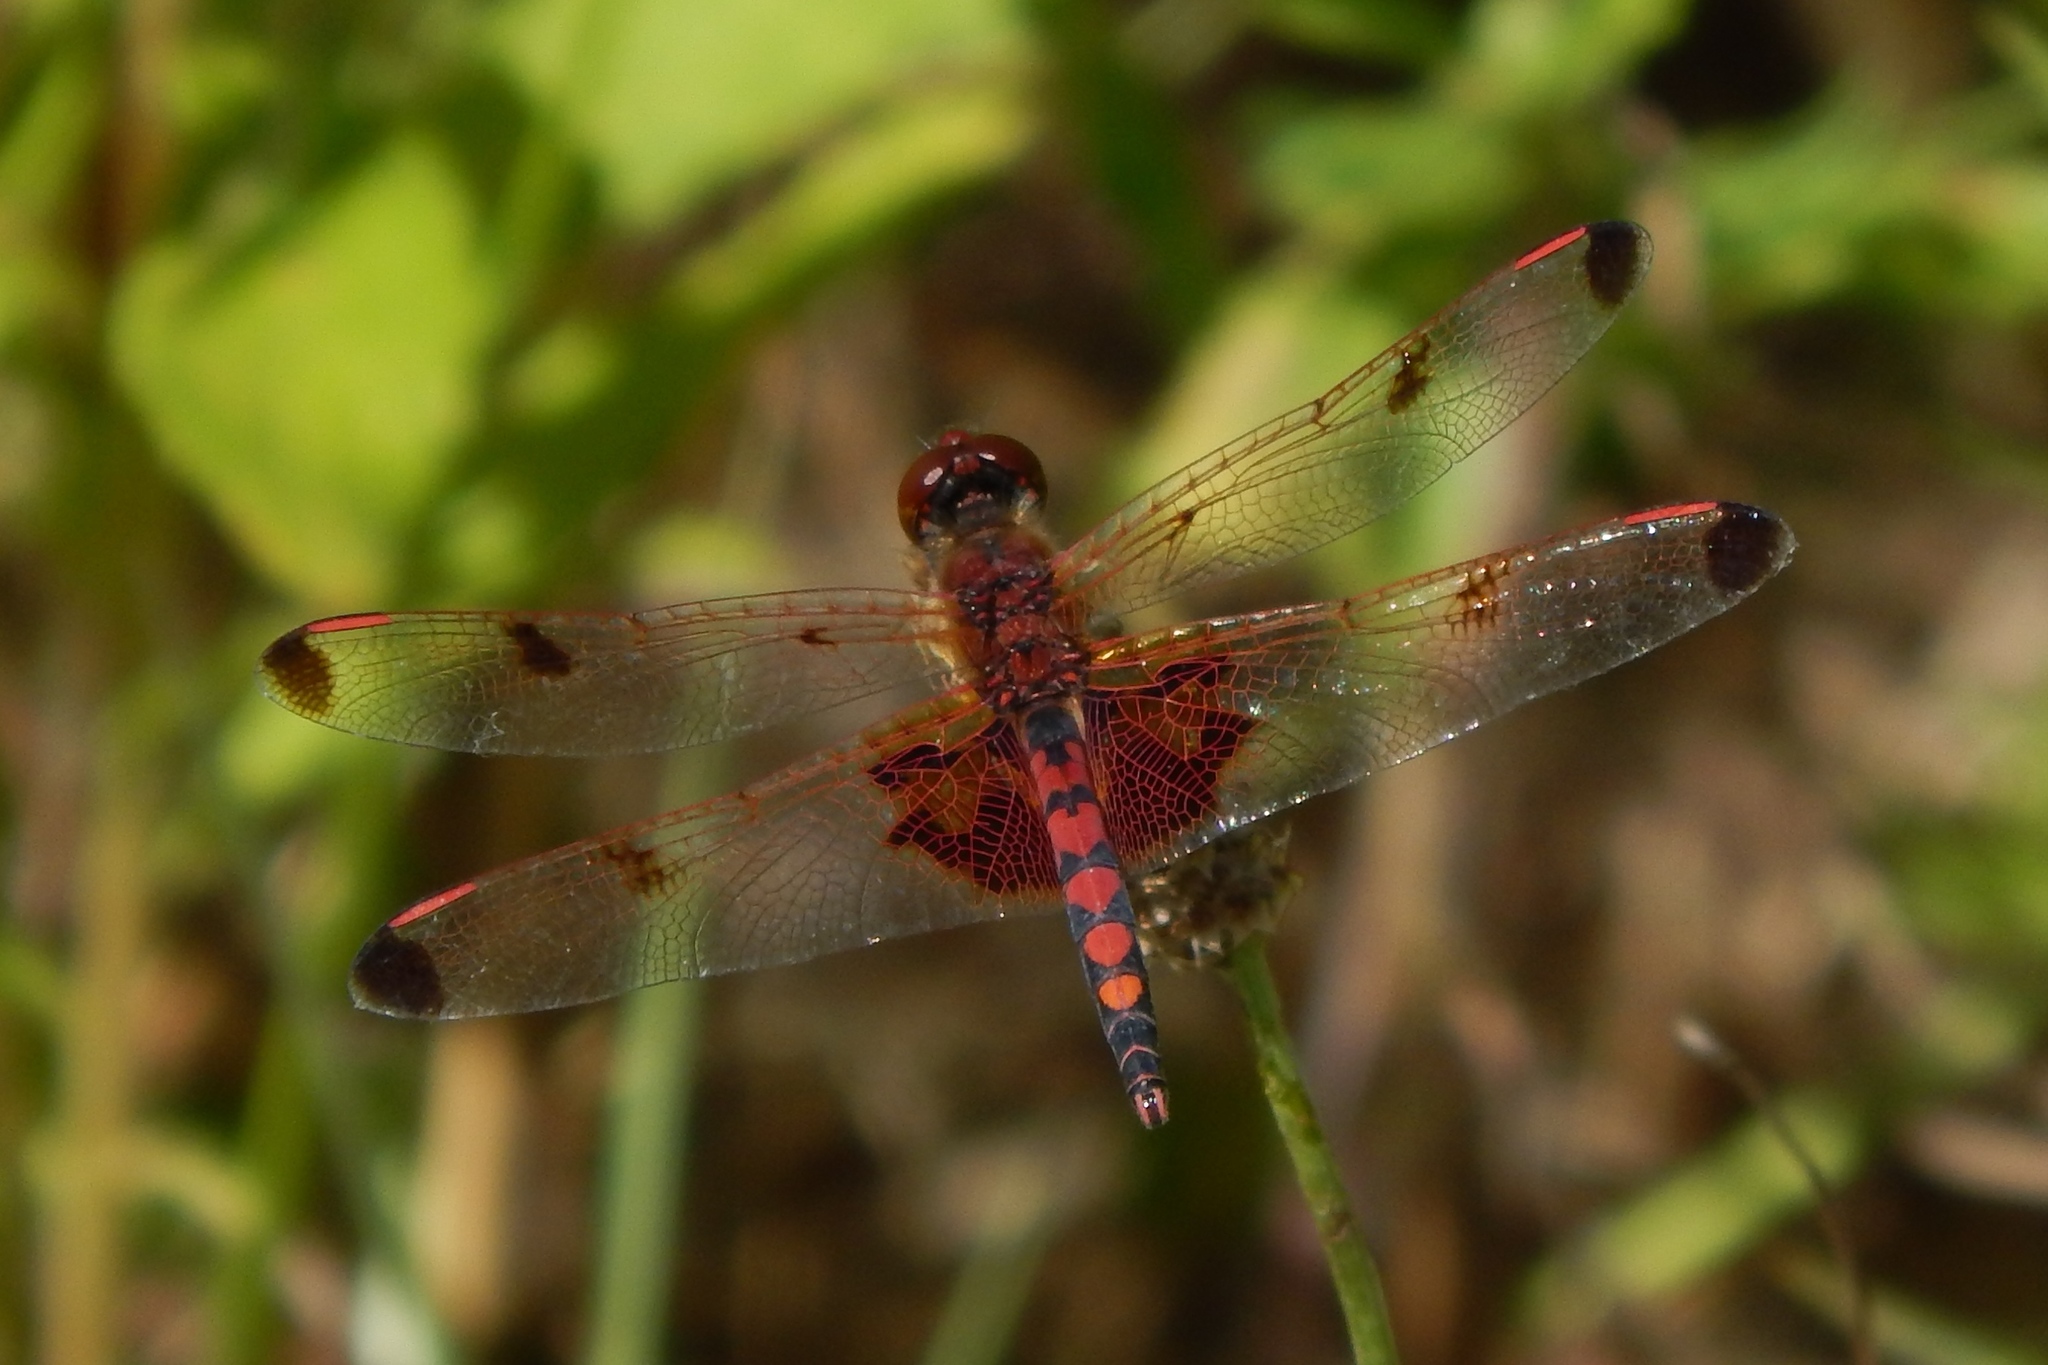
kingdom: Animalia
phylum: Arthropoda
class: Insecta
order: Odonata
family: Libellulidae
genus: Celithemis
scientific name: Celithemis elisa
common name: Calico pennant
